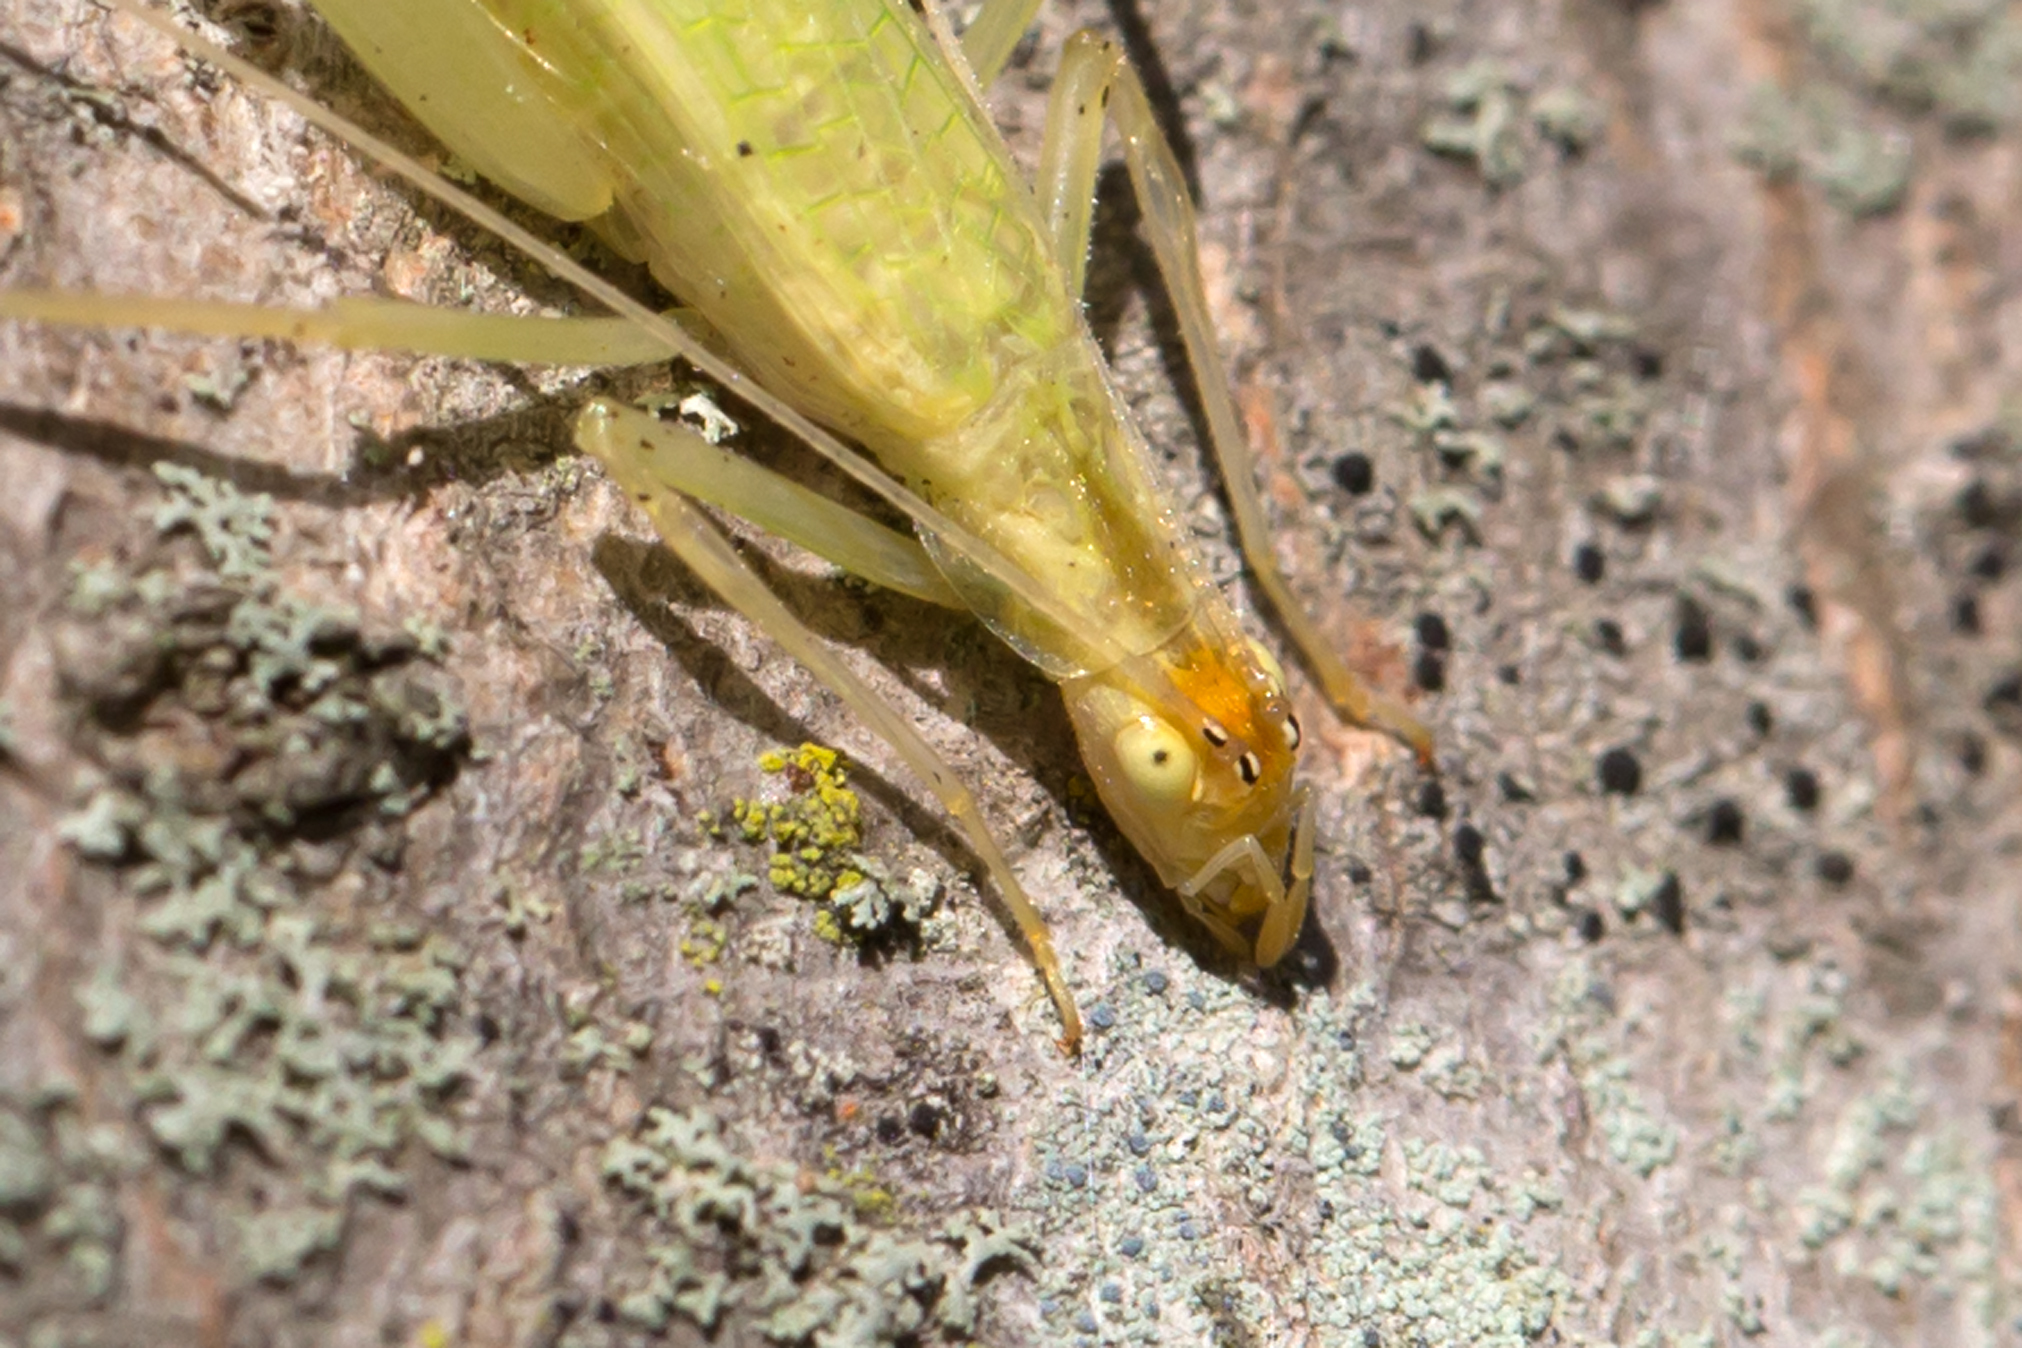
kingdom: Animalia
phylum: Arthropoda
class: Insecta
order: Orthoptera
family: Gryllidae
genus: Oecanthus
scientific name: Oecanthus niveus
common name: Narrow-winged tree cricket
